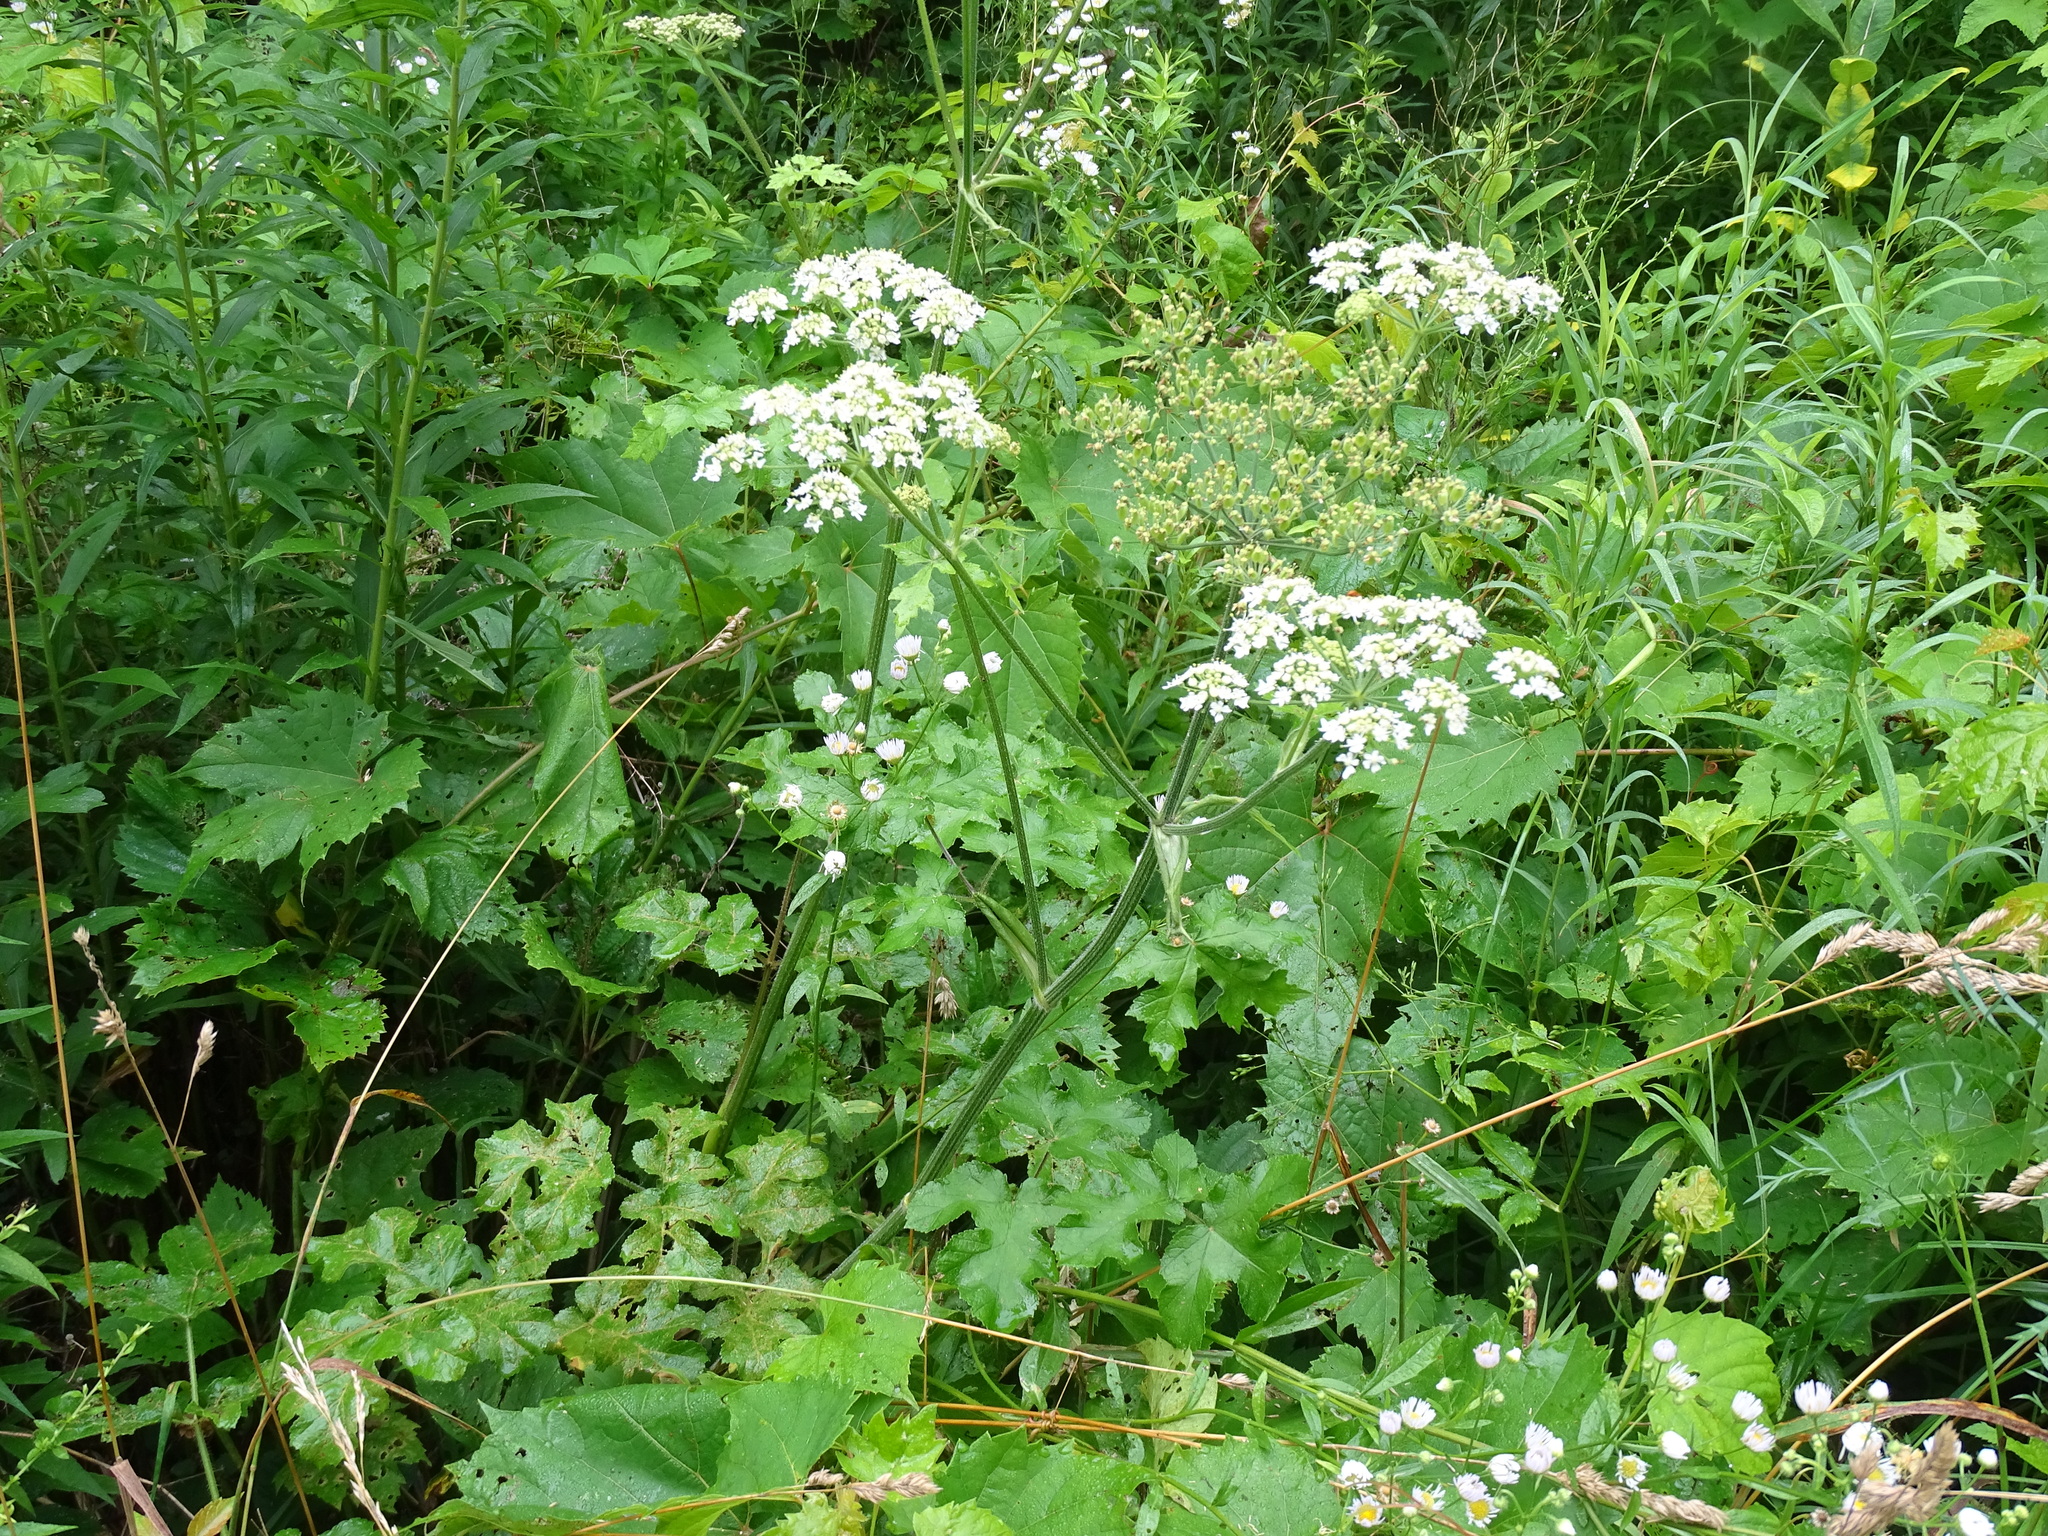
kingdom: Plantae
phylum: Tracheophyta
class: Magnoliopsida
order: Apiales
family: Apiaceae
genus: Heracleum
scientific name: Heracleum sphondylium
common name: Hogweed
